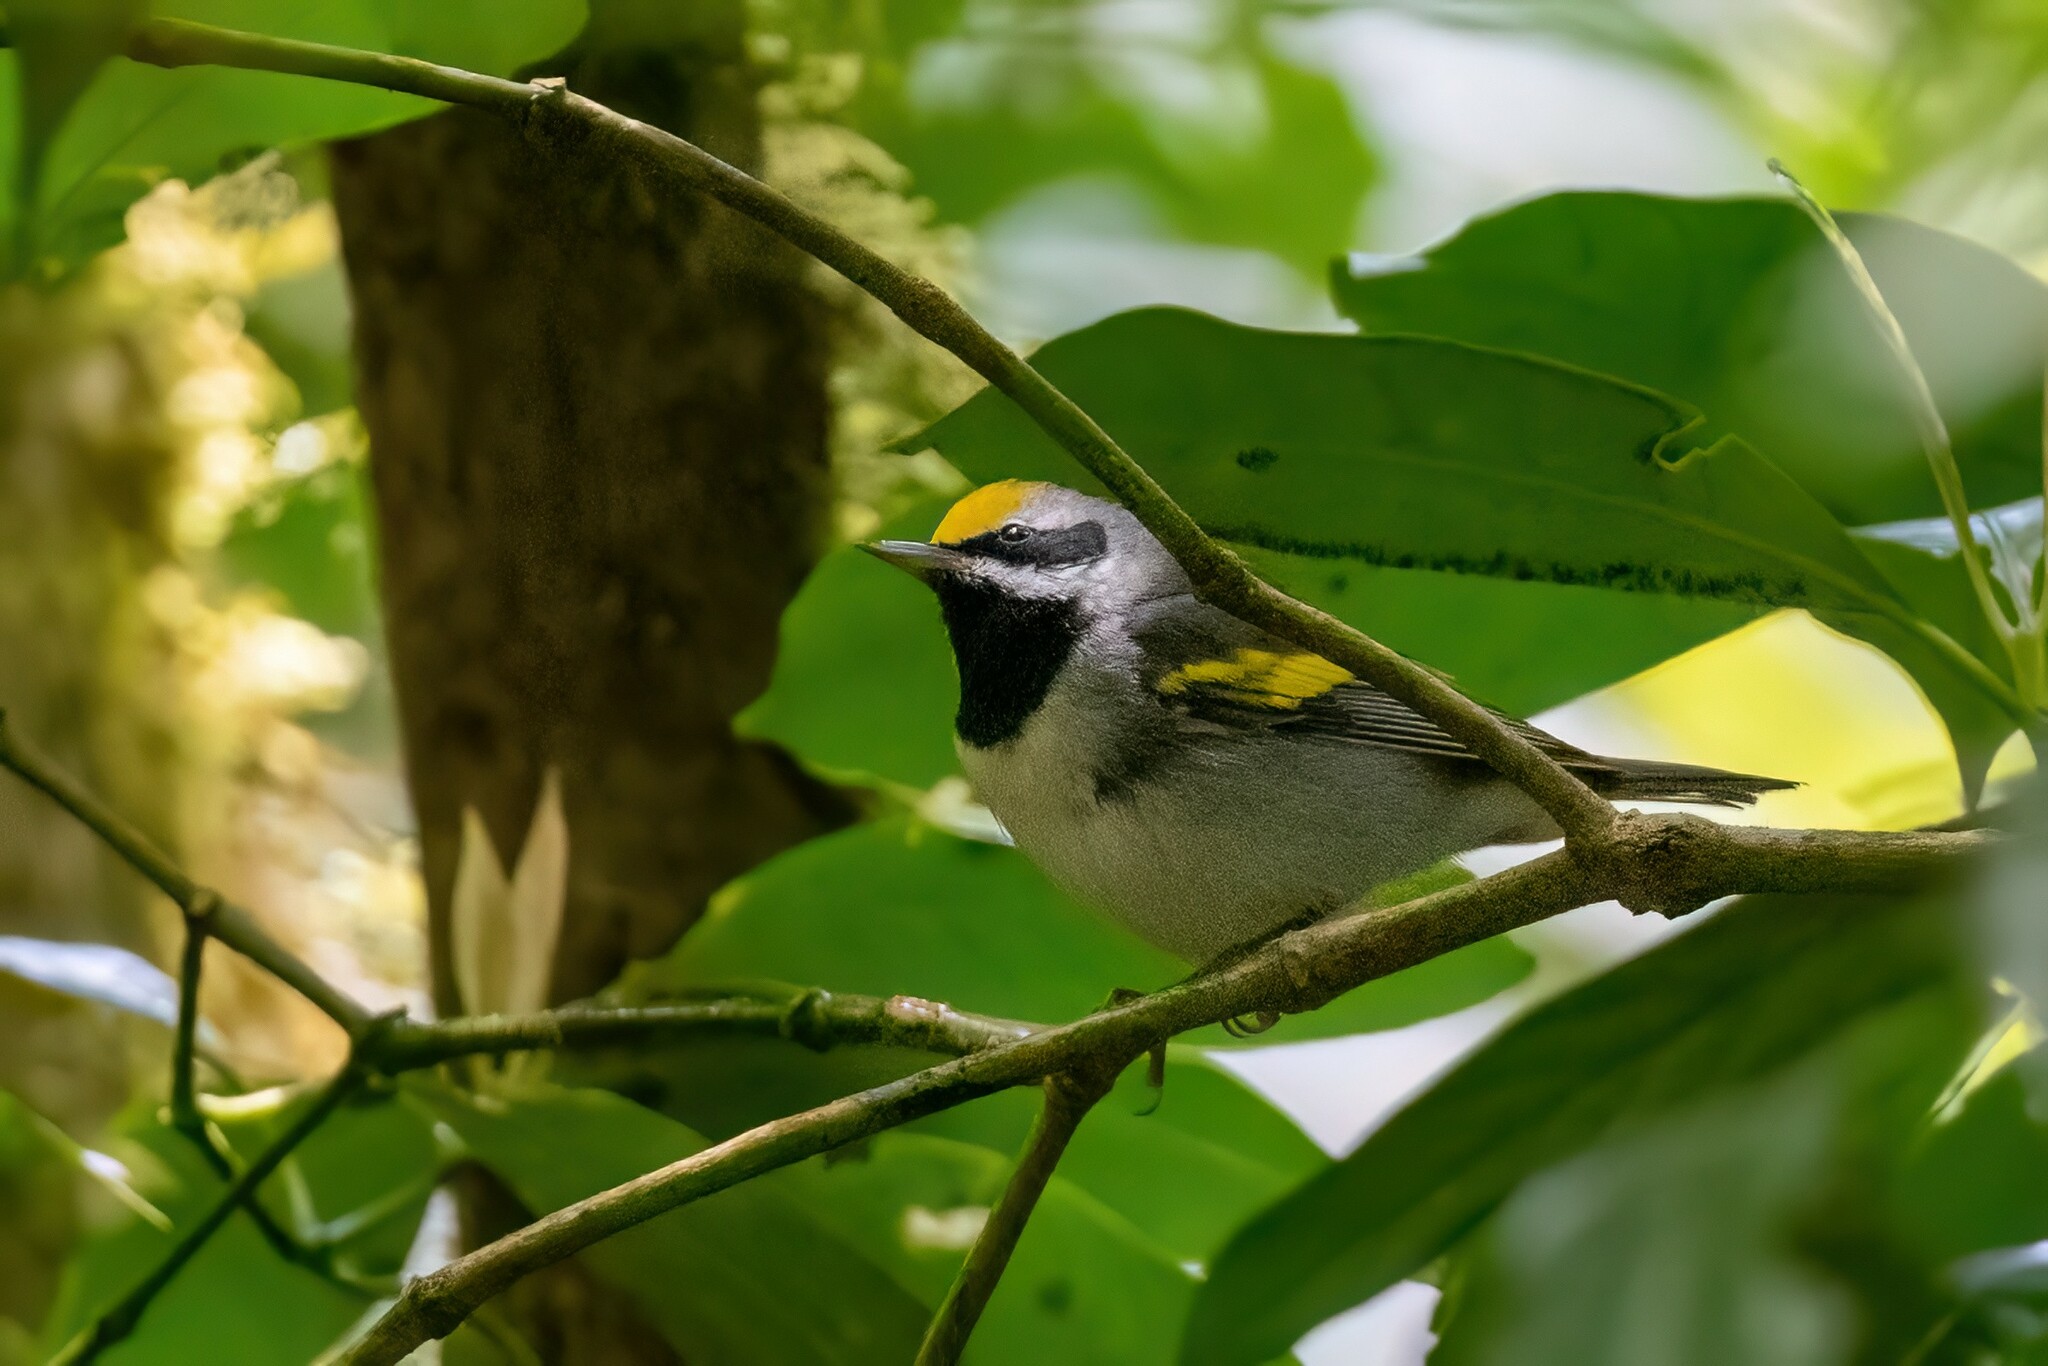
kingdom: Animalia
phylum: Chordata
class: Aves
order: Passeriformes
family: Parulidae
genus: Vermivora
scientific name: Vermivora chrysoptera
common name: Golden-winged warbler
